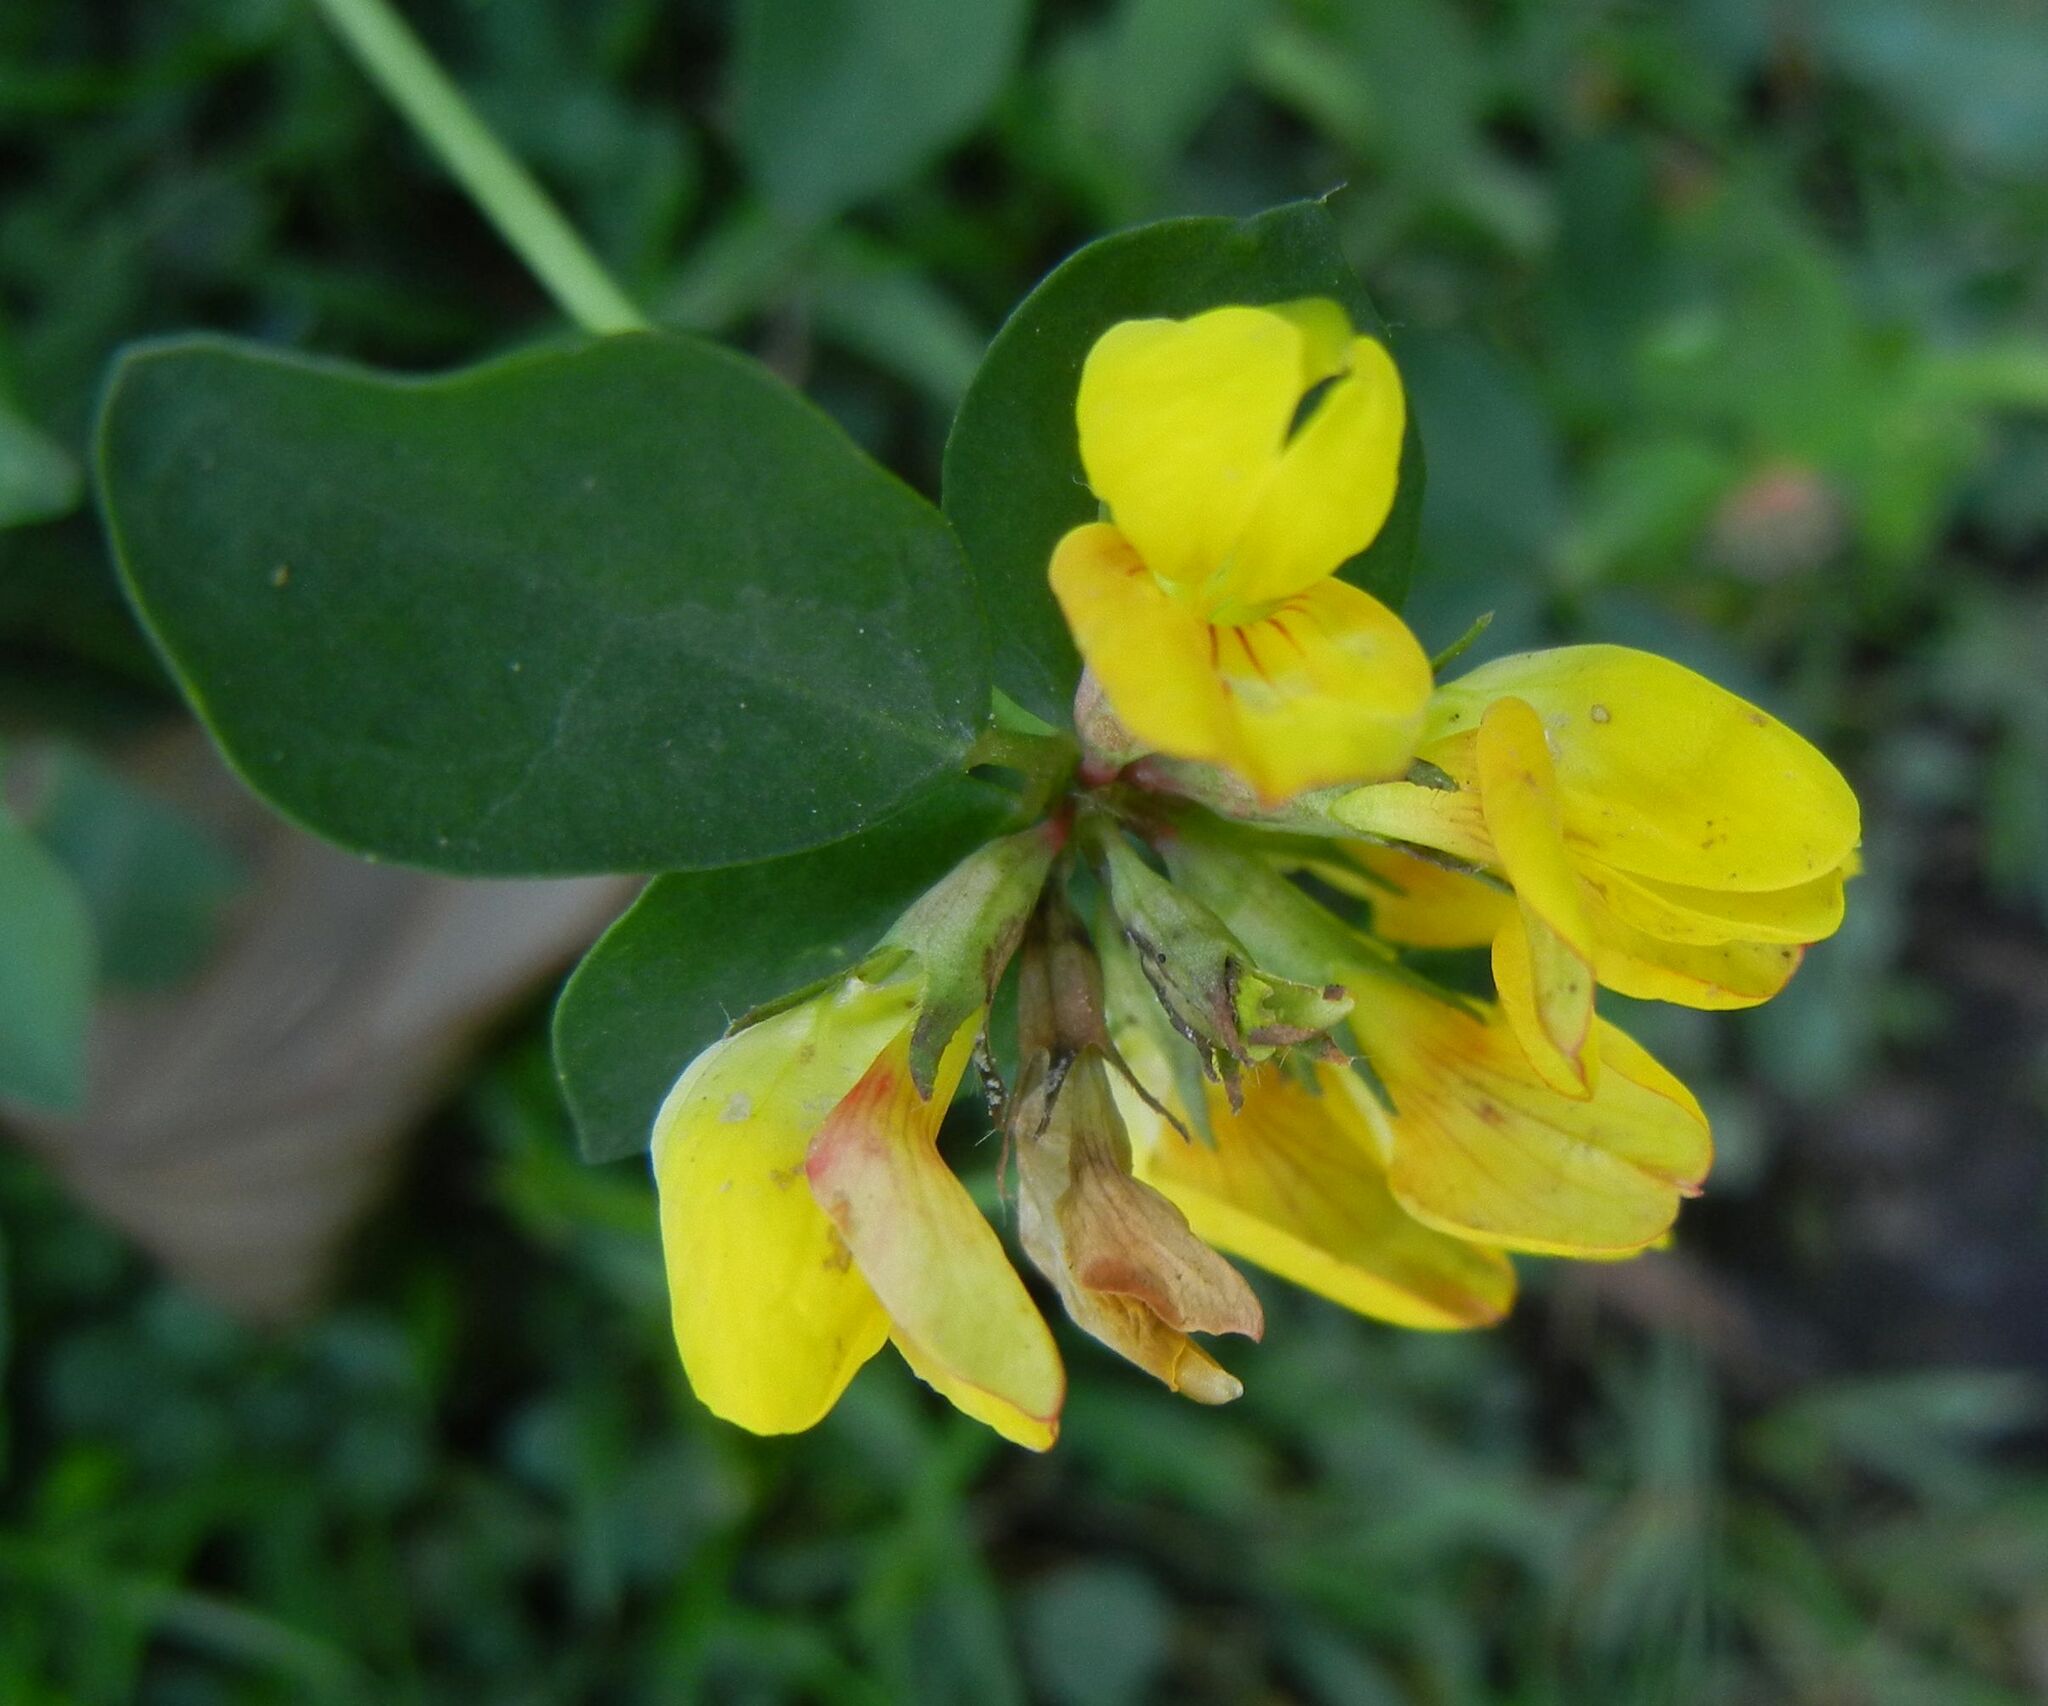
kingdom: Plantae
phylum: Tracheophyta
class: Magnoliopsida
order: Fabales
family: Fabaceae
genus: Lotus
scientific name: Lotus pedunculatus
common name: Greater birdsfoot-trefoil
